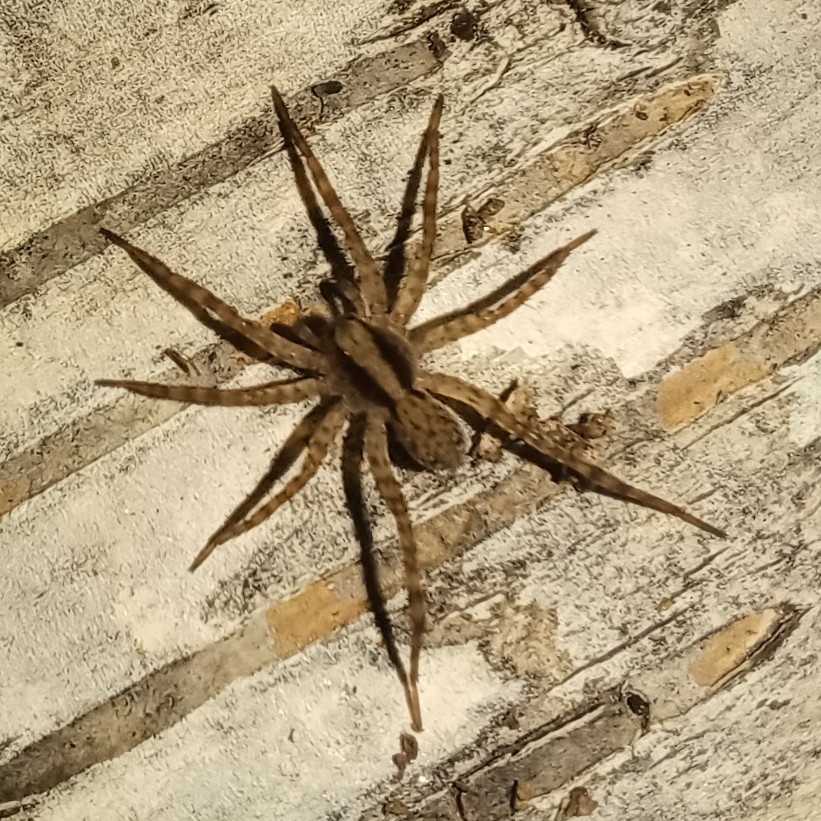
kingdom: Animalia
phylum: Arthropoda
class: Arachnida
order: Araneae
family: Lycosidae
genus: Pardosa
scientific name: Pardosa
